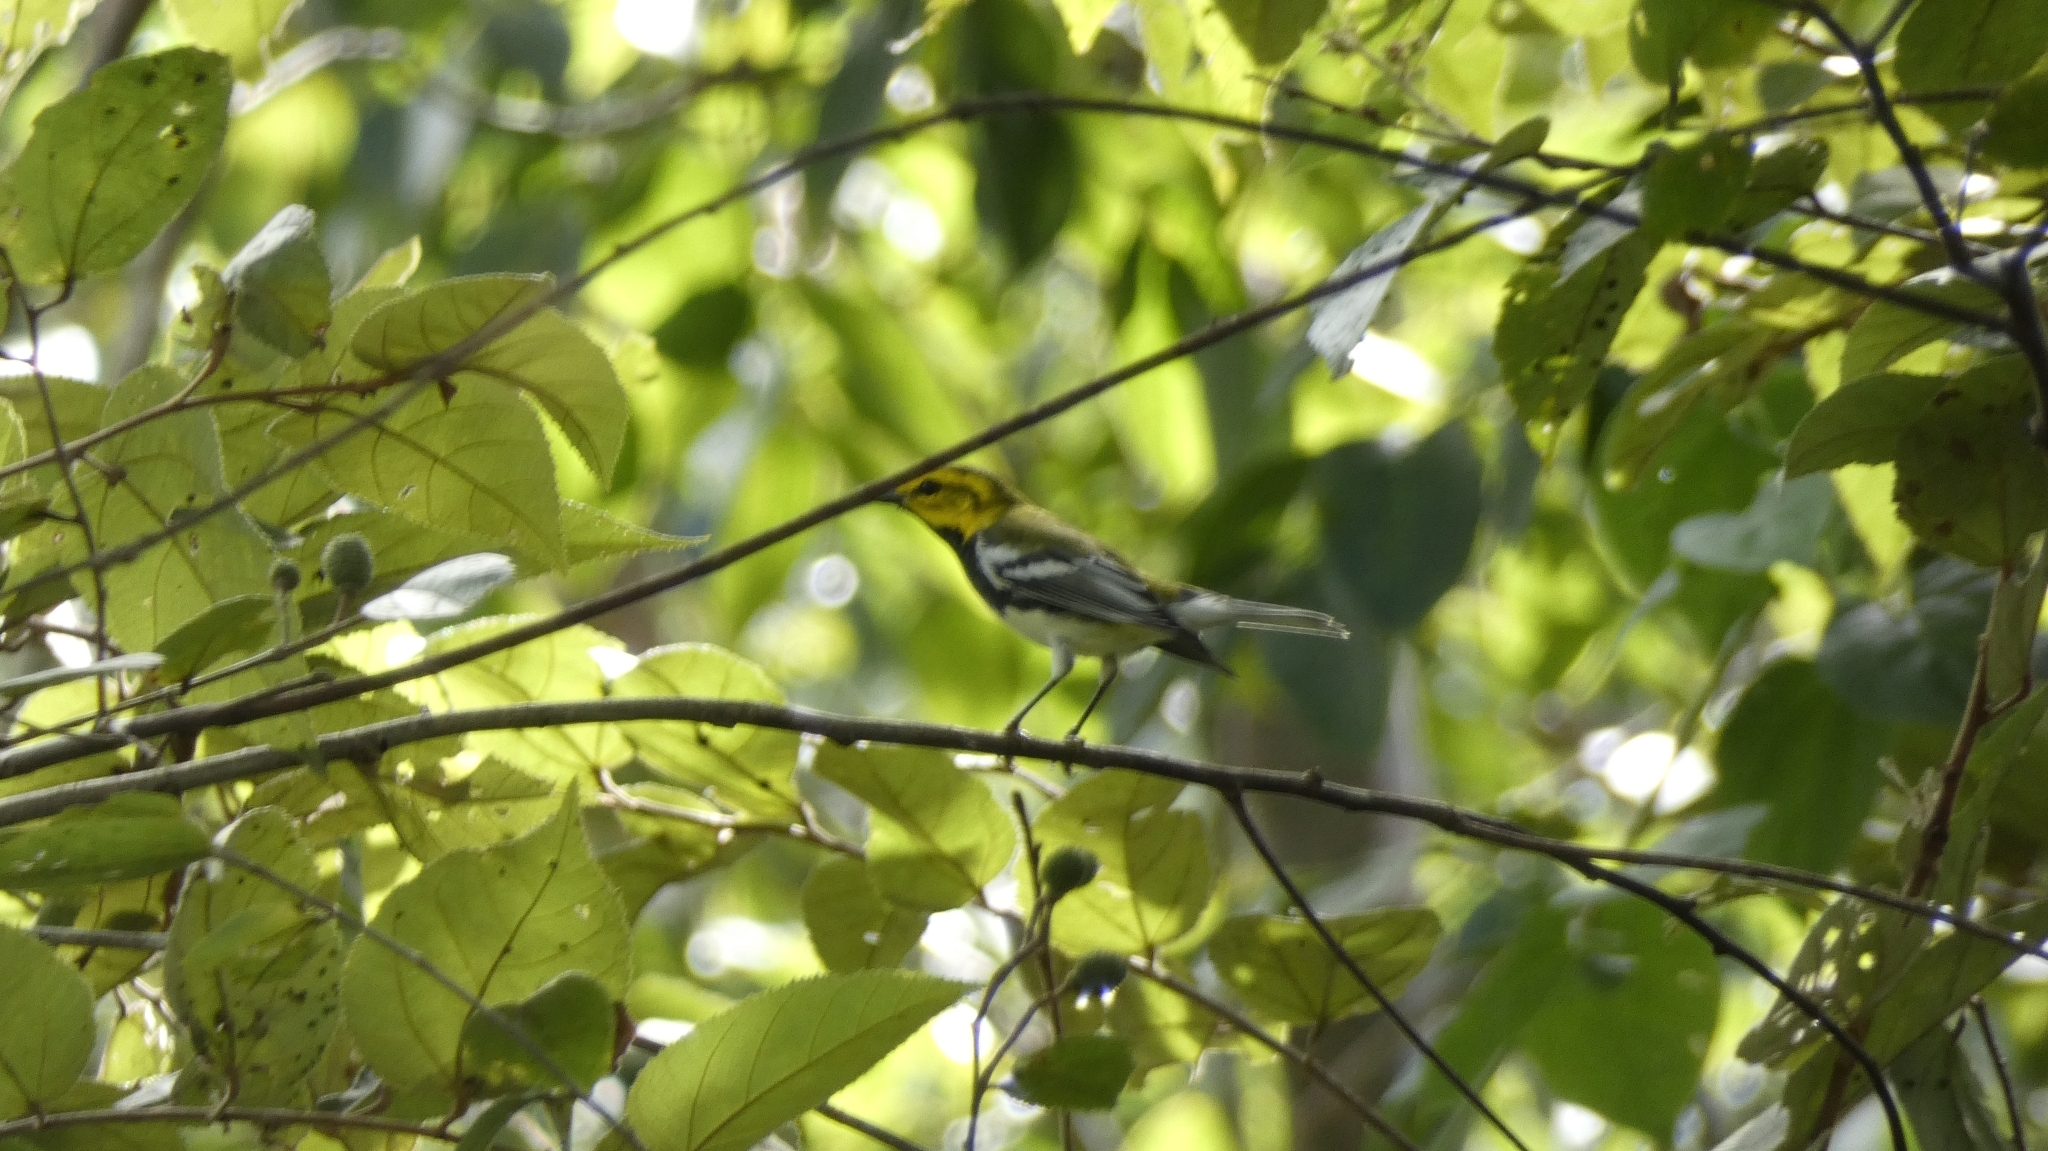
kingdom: Animalia
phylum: Chordata
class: Aves
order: Passeriformes
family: Parulidae
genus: Setophaga
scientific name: Setophaga virens
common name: Black-throated green warbler
